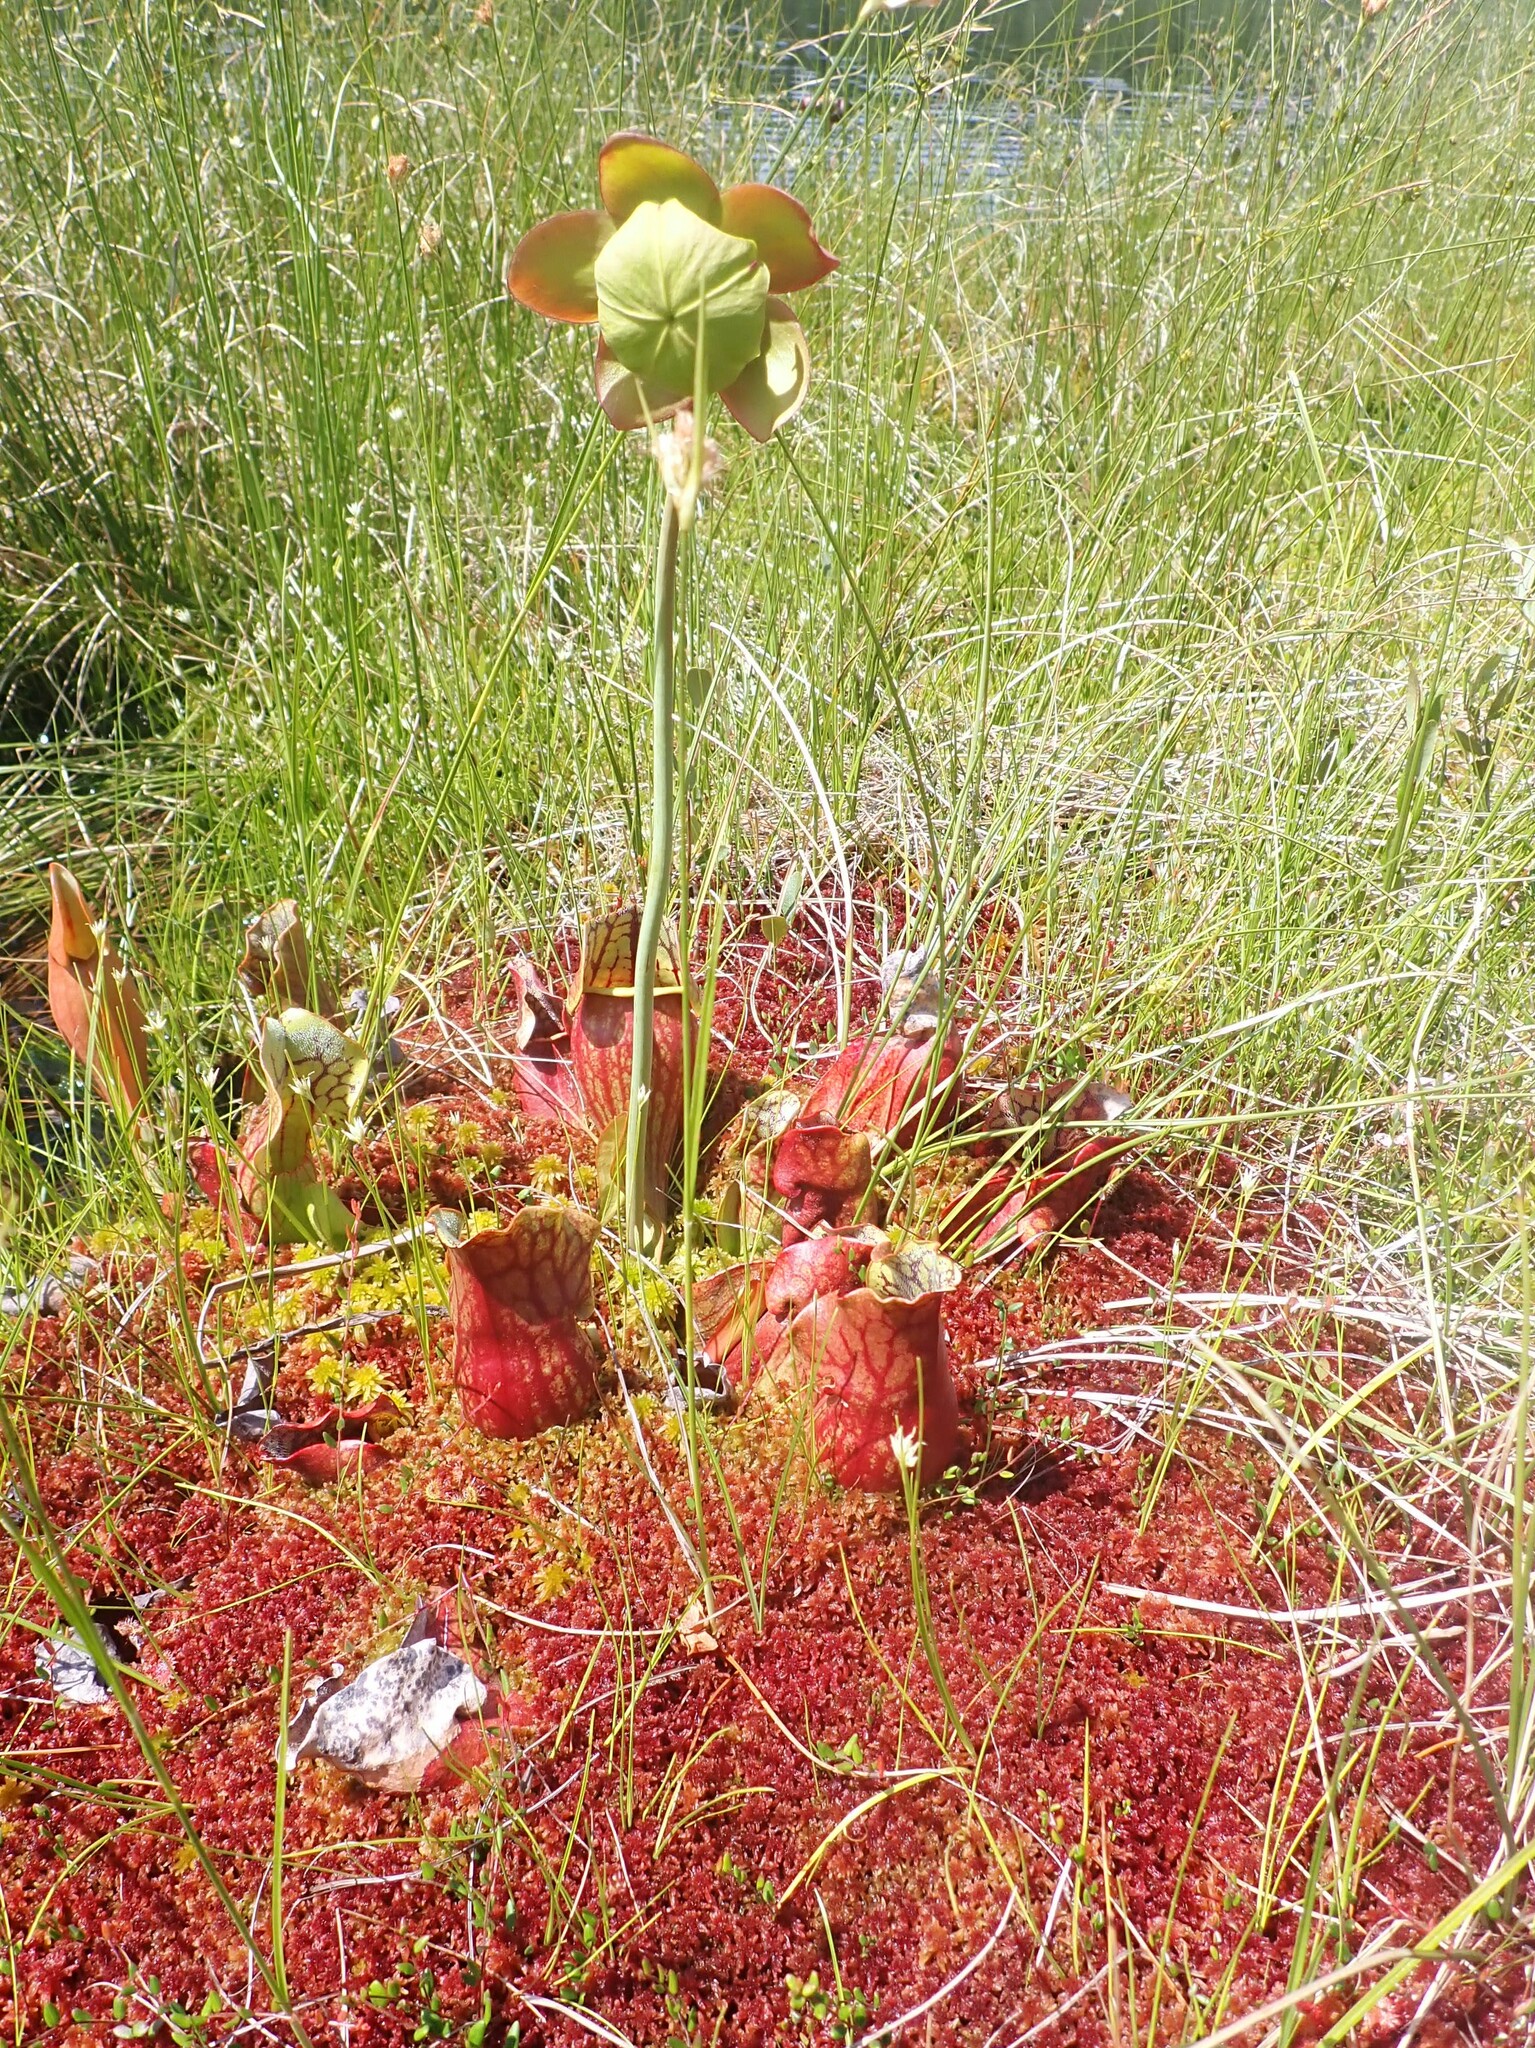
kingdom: Plantae
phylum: Tracheophyta
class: Magnoliopsida
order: Ericales
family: Sarraceniaceae
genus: Sarracenia
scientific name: Sarracenia purpurea
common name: Pitcherplant
